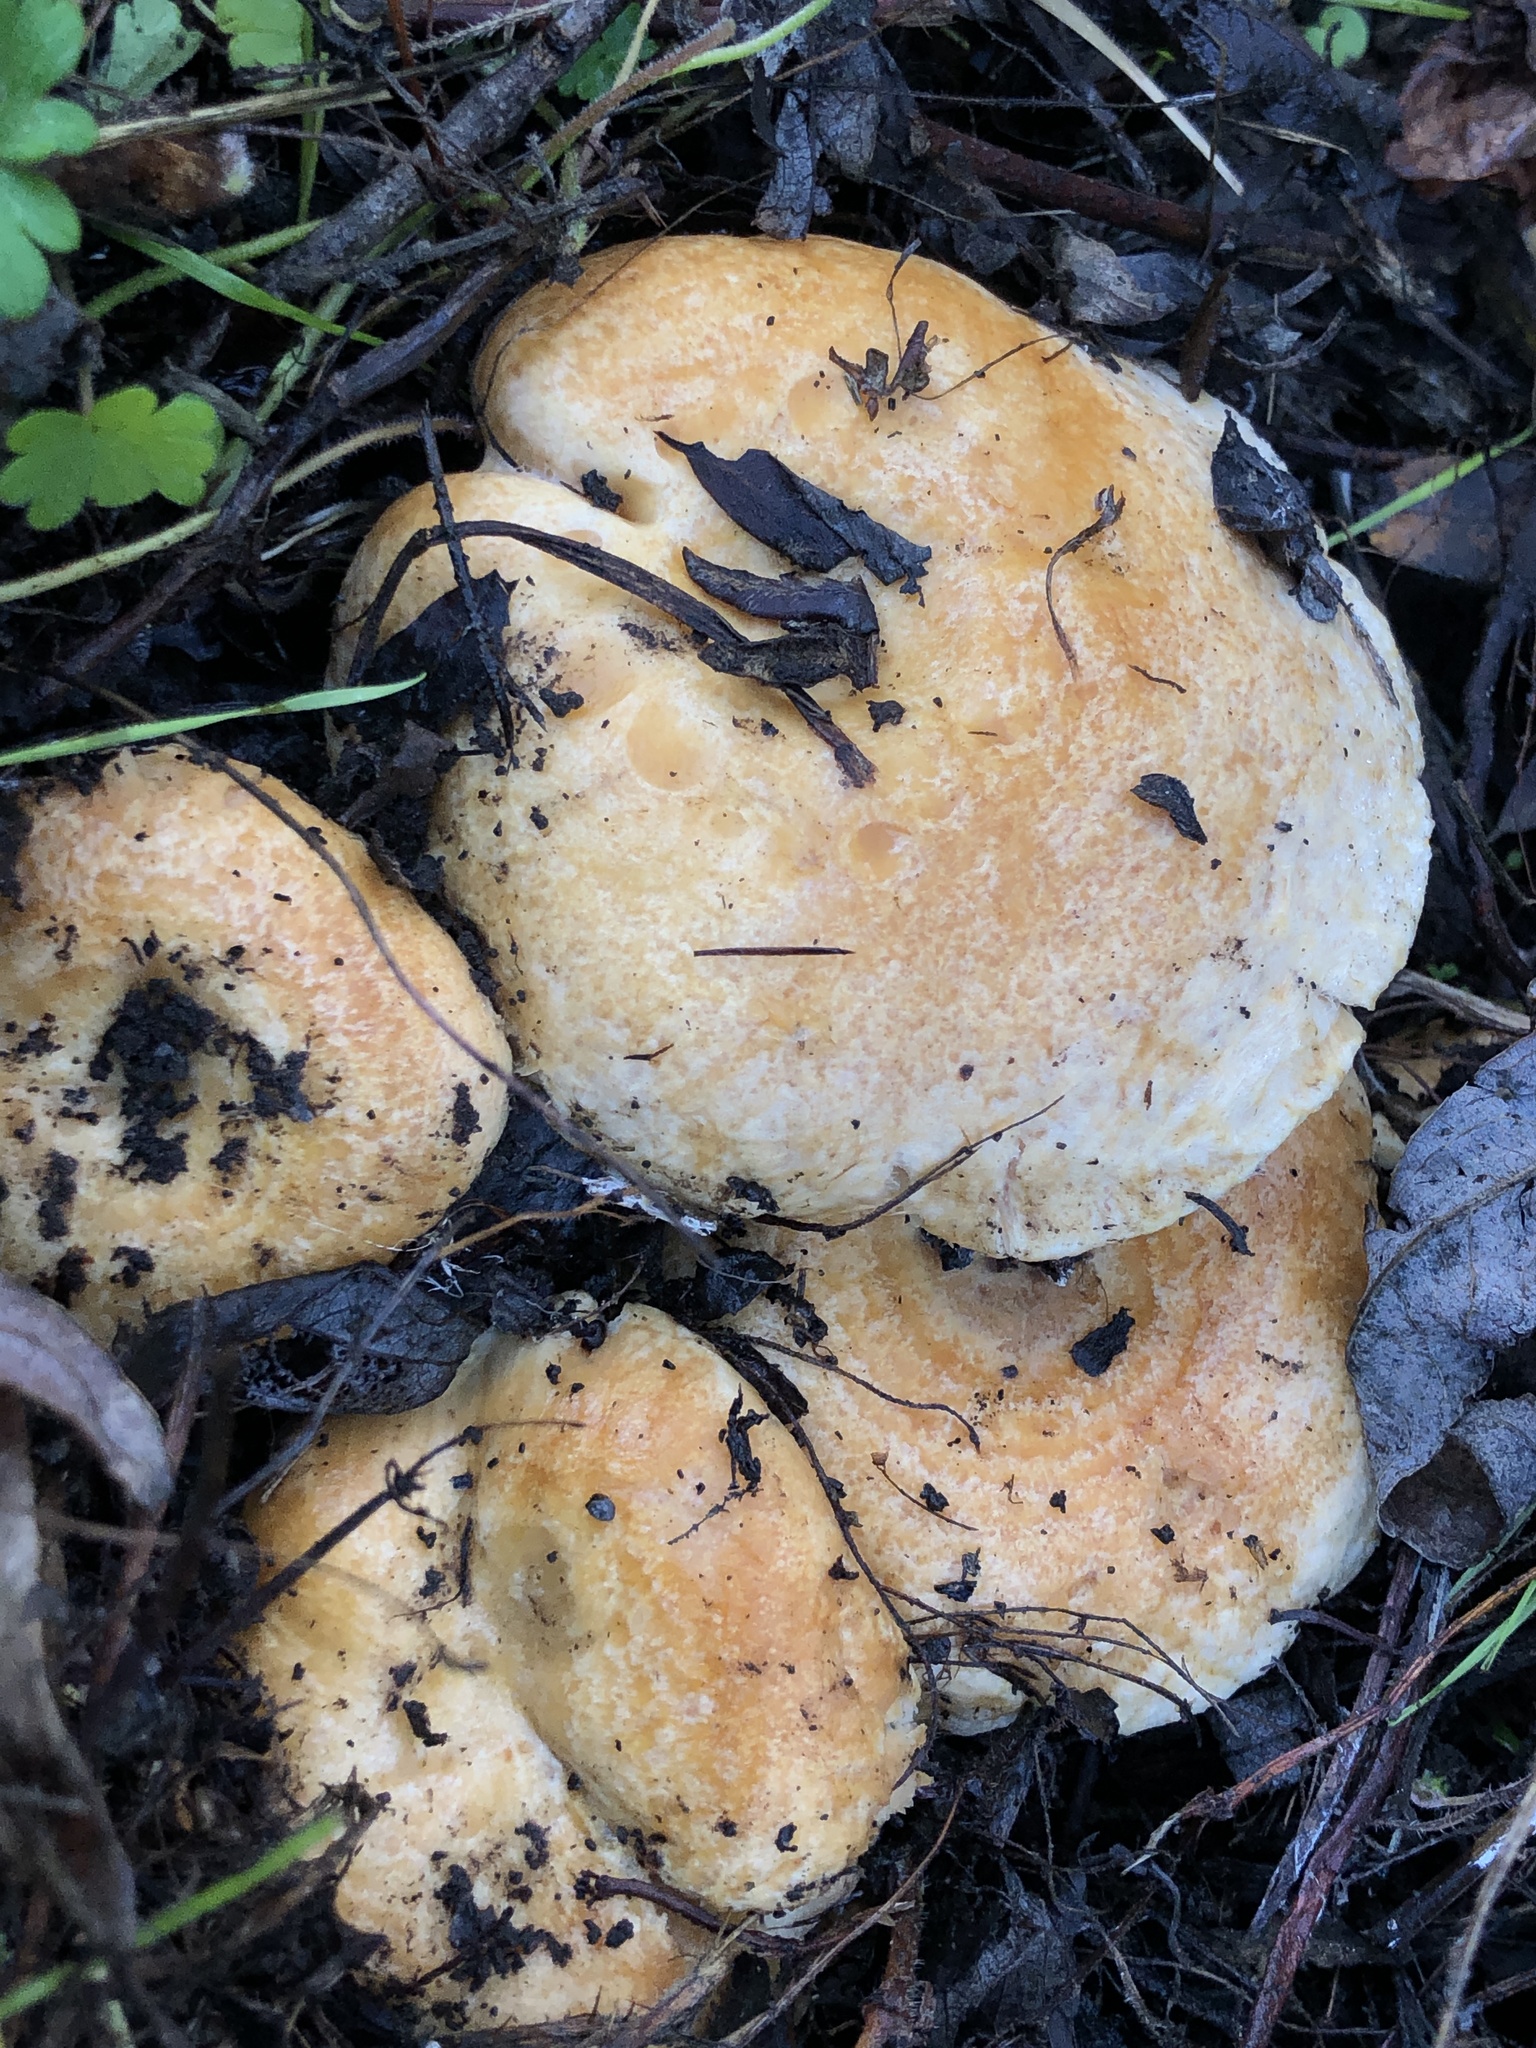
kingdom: Fungi
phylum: Basidiomycota
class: Agaricomycetes
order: Russulales
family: Russulaceae
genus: Lactarius
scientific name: Lactarius alnicola
